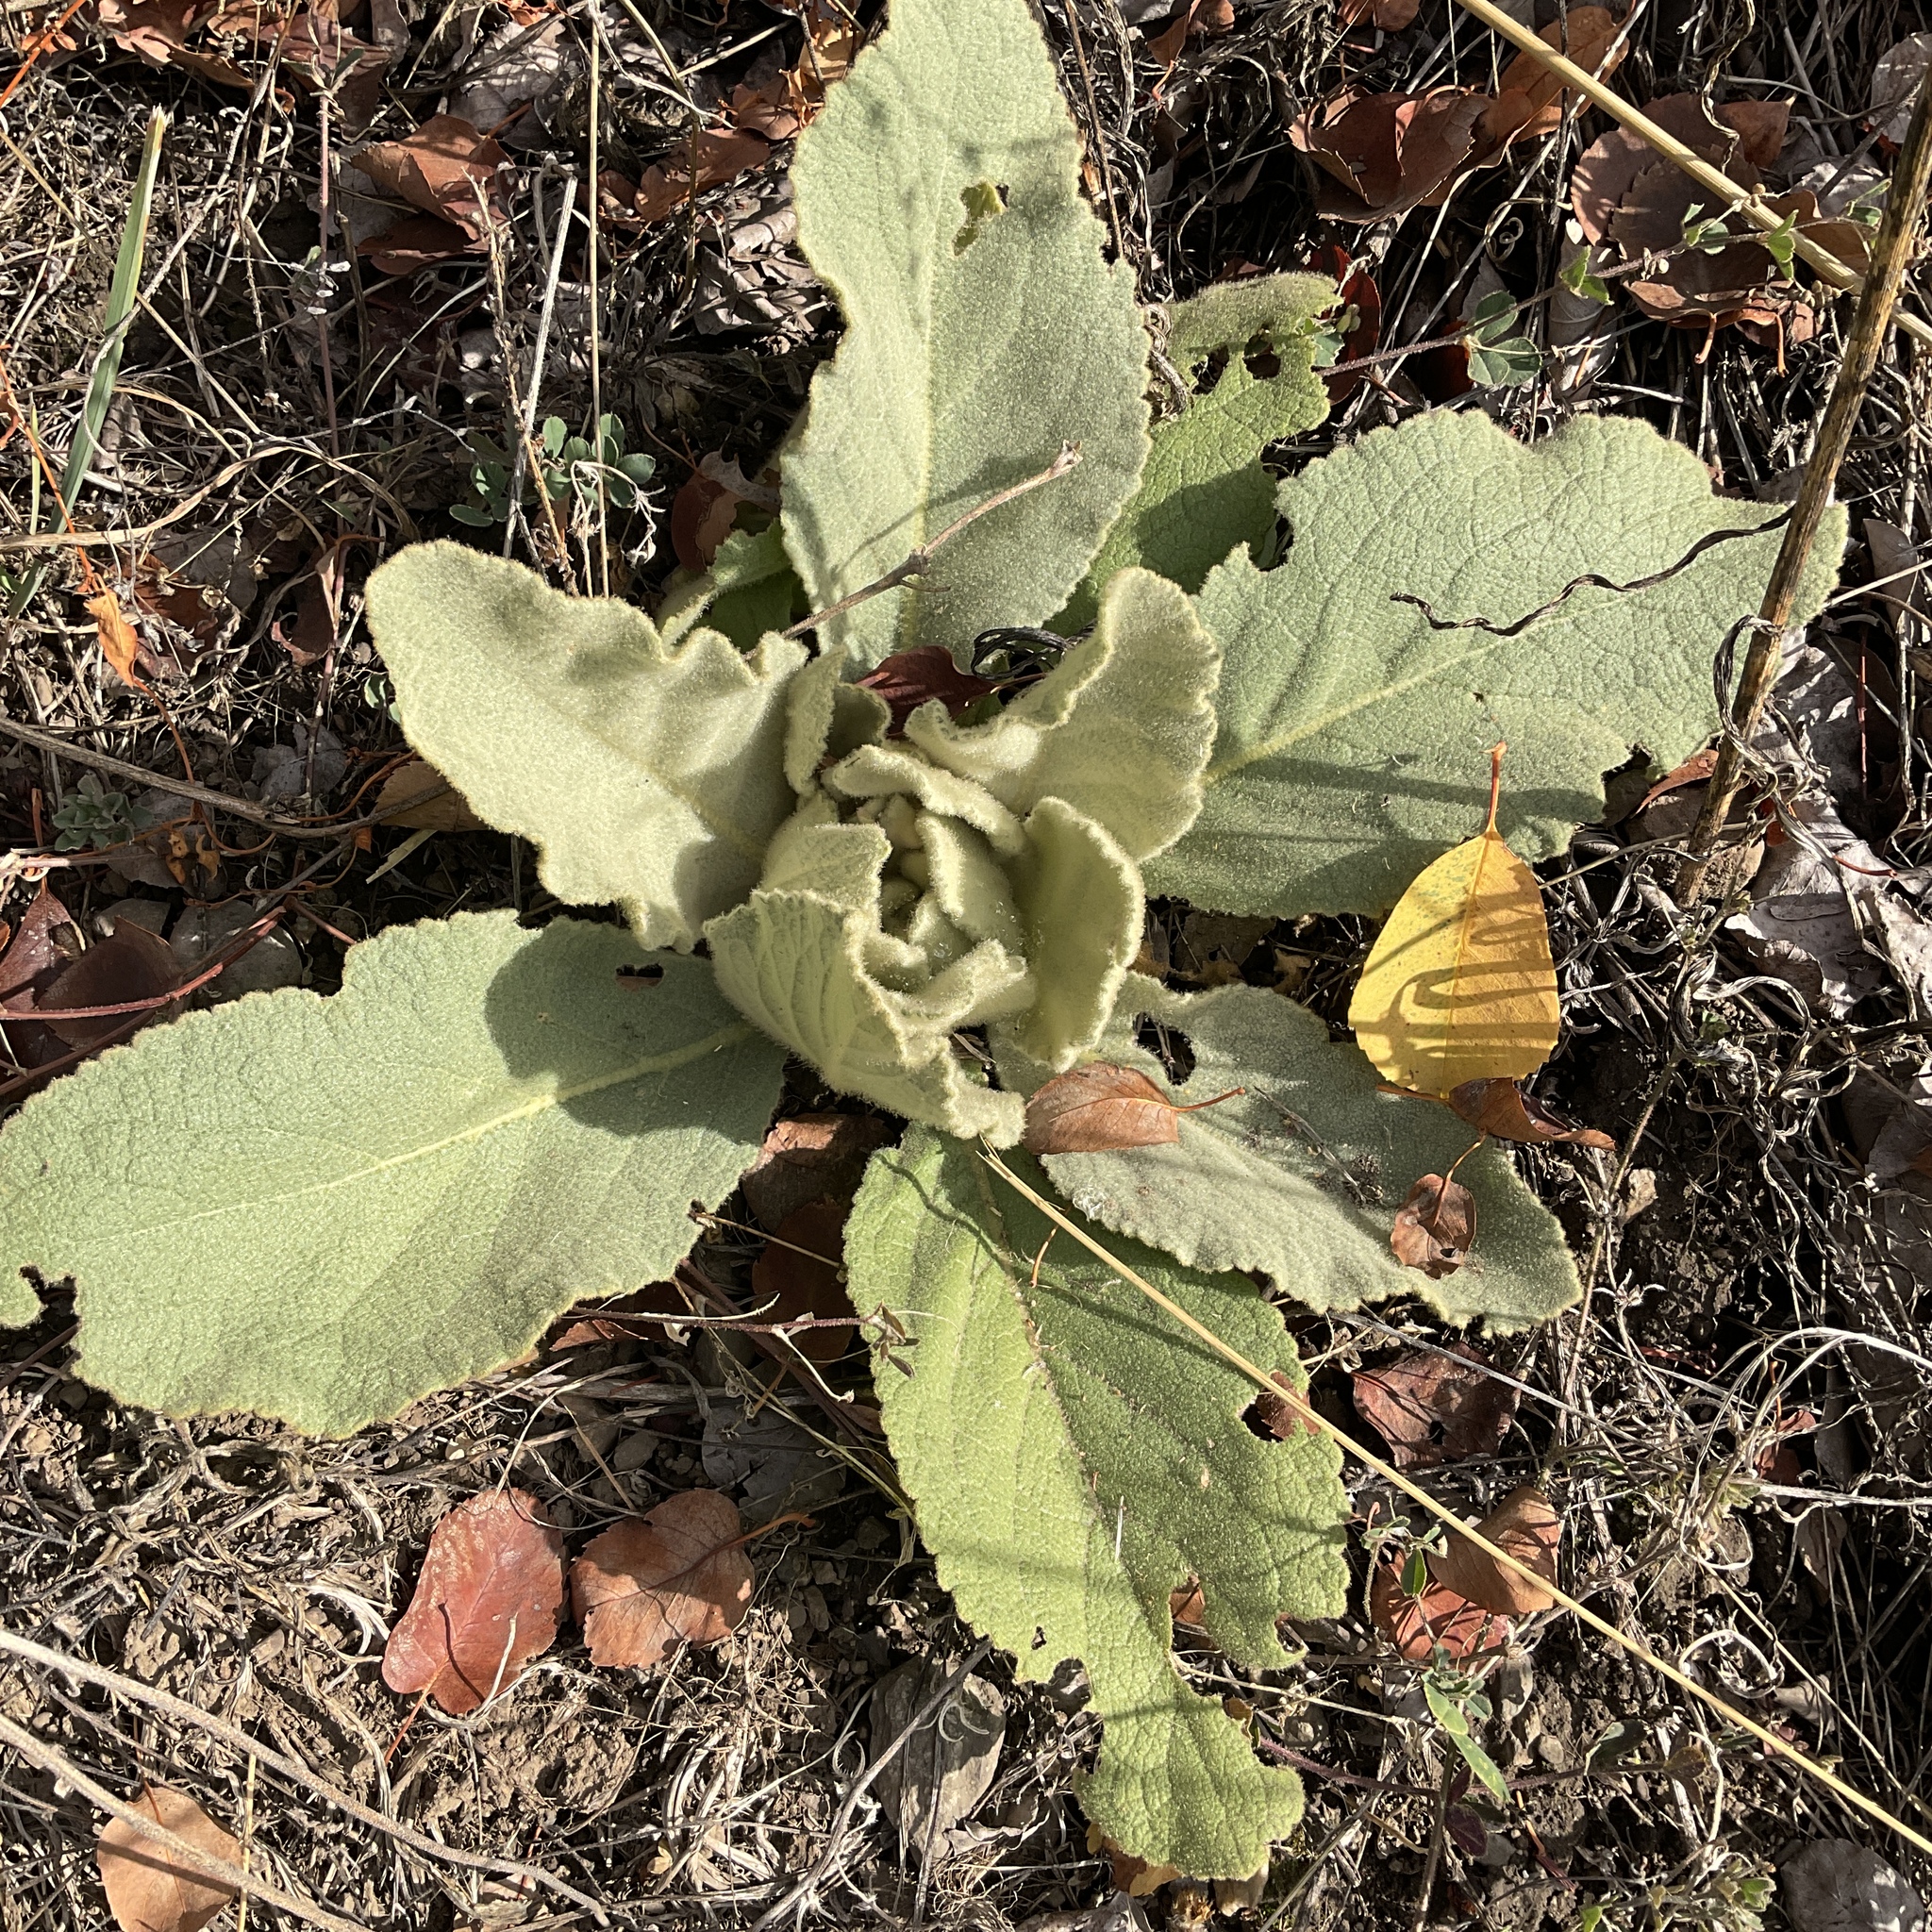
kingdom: Plantae
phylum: Tracheophyta
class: Magnoliopsida
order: Lamiales
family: Scrophulariaceae
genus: Verbascum
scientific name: Verbascum thapsus
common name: Common mullein
